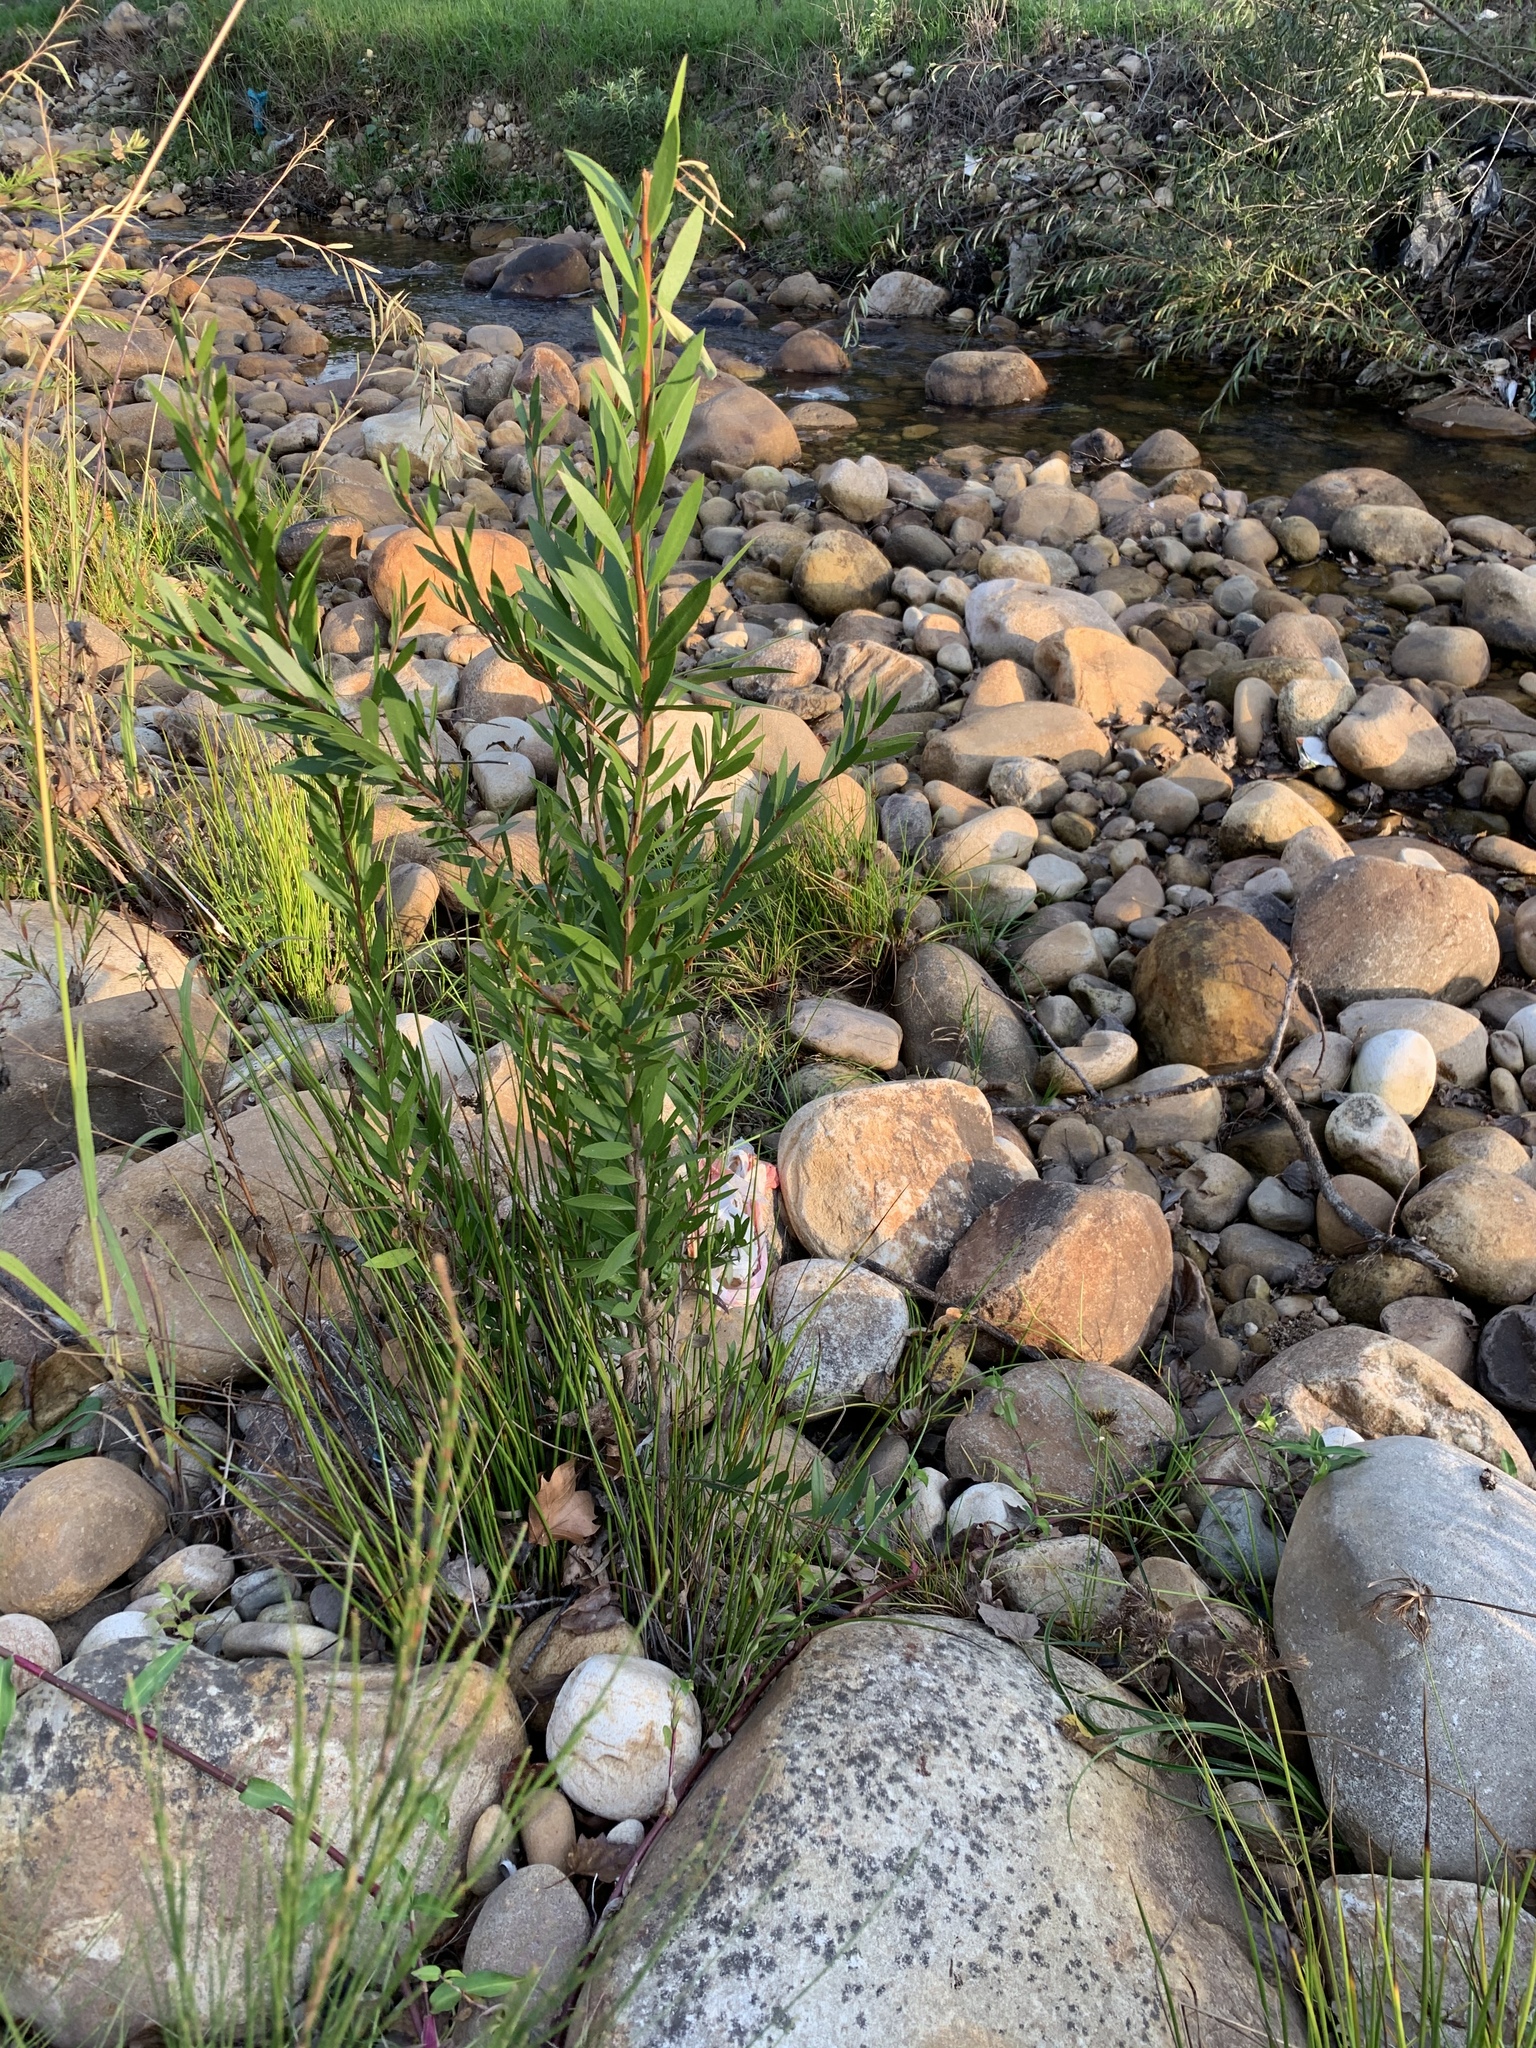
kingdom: Plantae
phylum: Tracheophyta
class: Magnoliopsida
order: Myrtales
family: Myrtaceae
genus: Callistemon
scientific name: Callistemon viminalis
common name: Drooping bottlebrush
